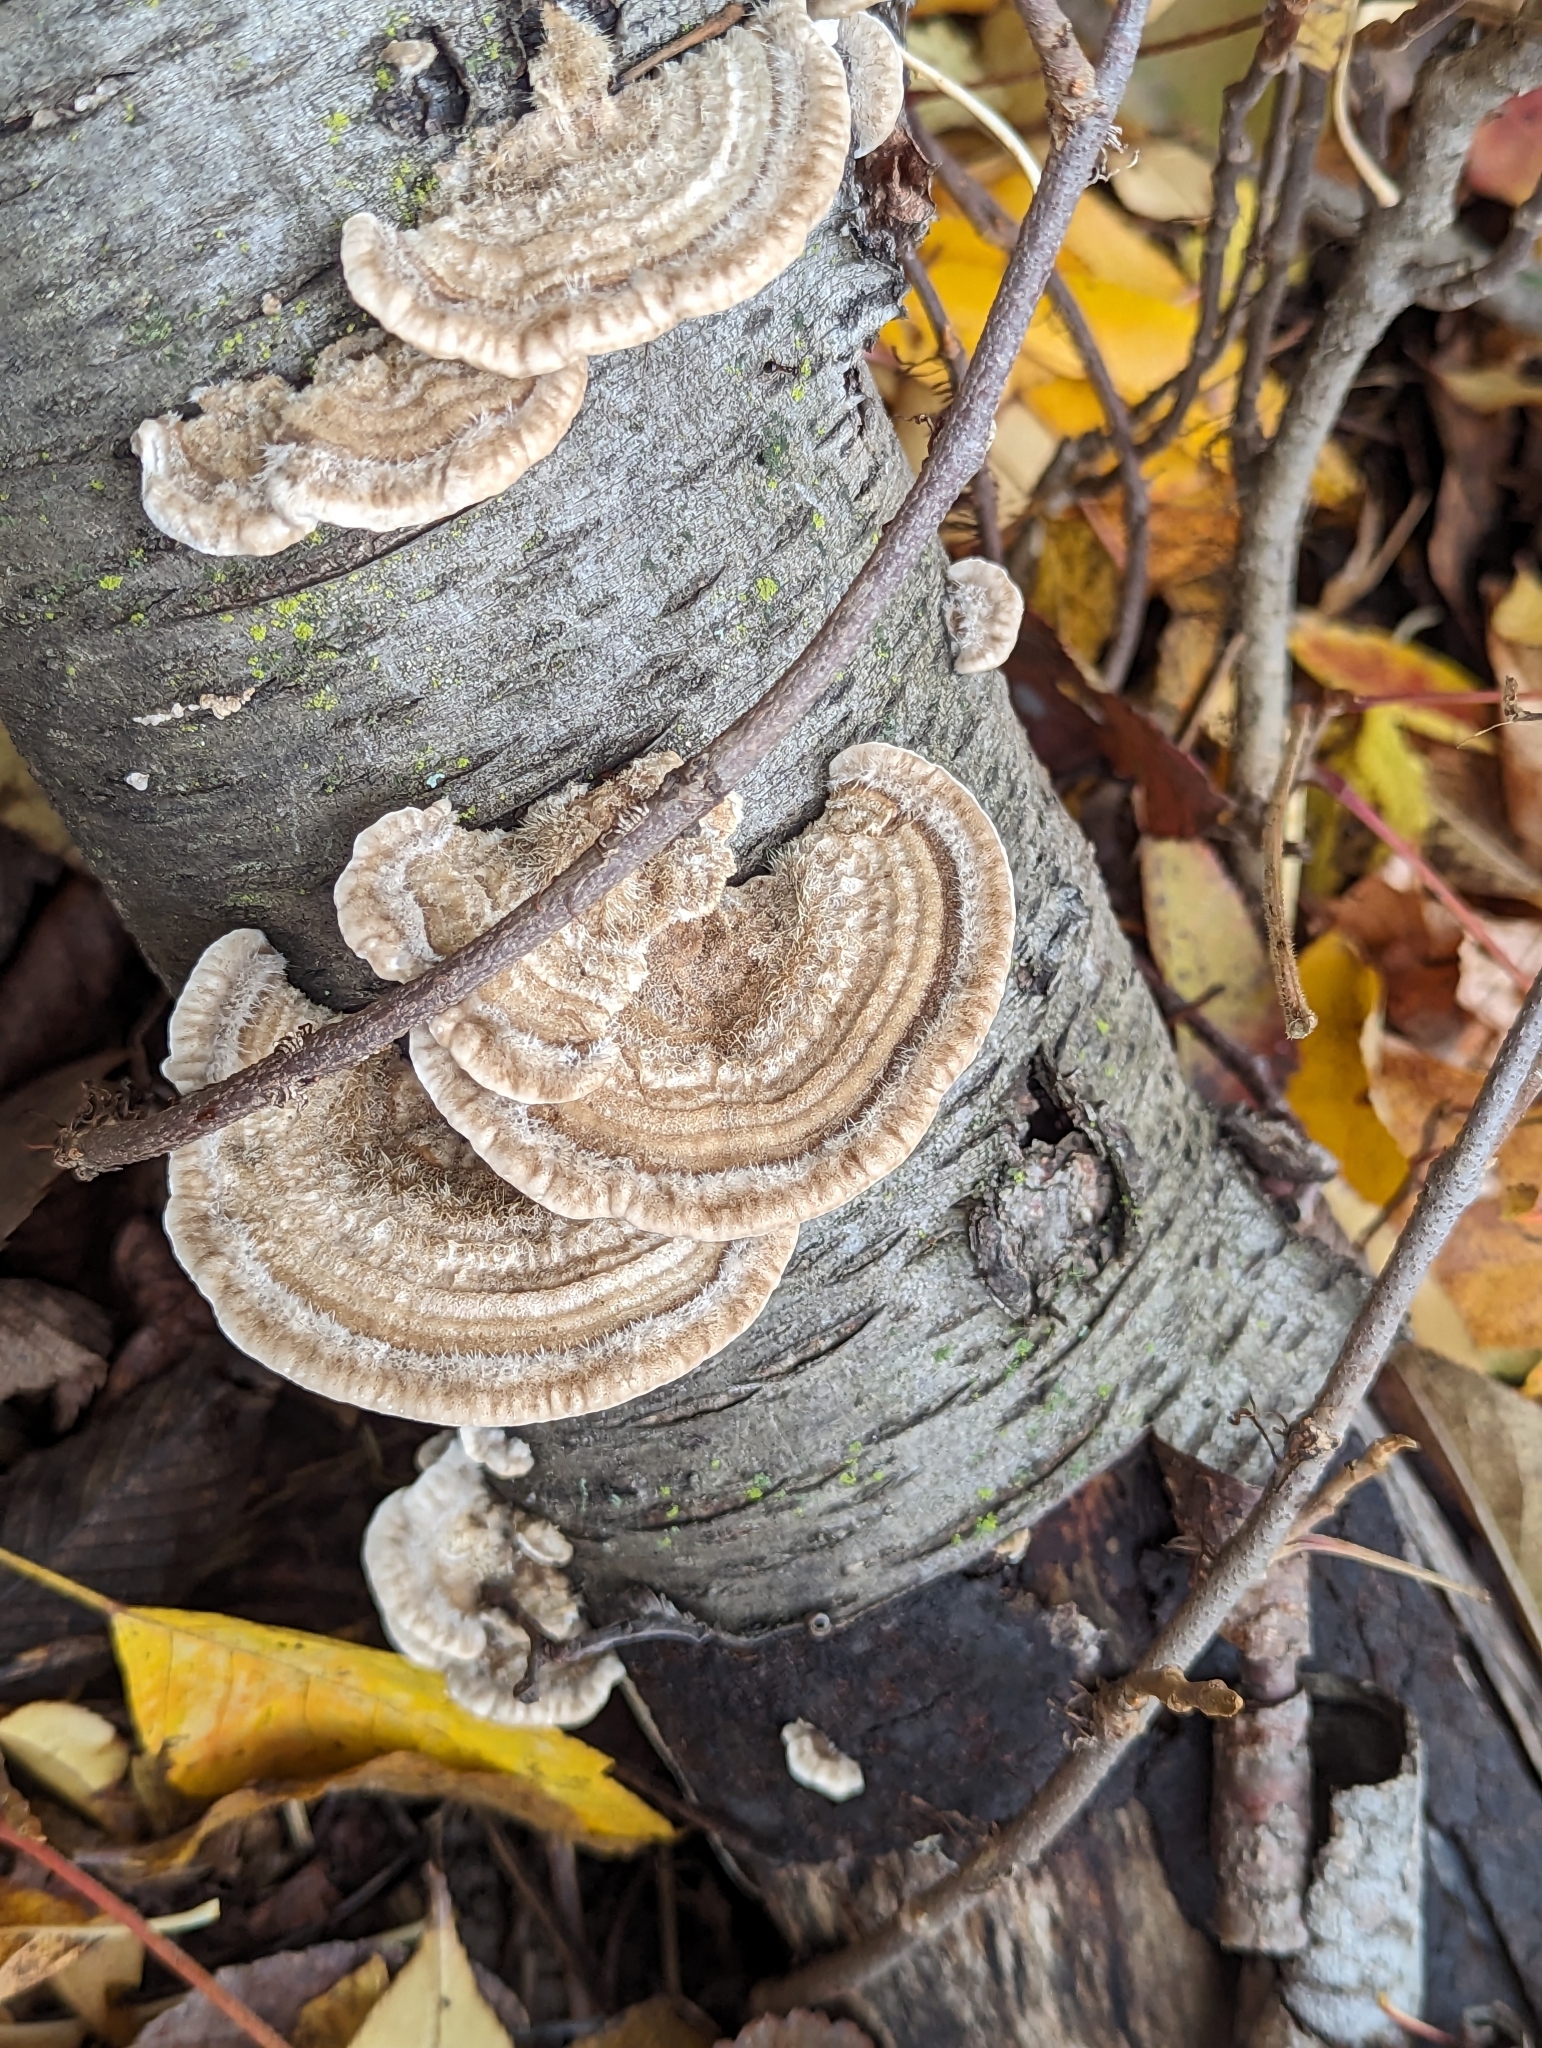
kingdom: Fungi
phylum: Basidiomycota
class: Agaricomycetes
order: Polyporales
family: Polyporaceae
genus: Trametes
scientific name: Trametes hirsuta
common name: Hairy bracket
